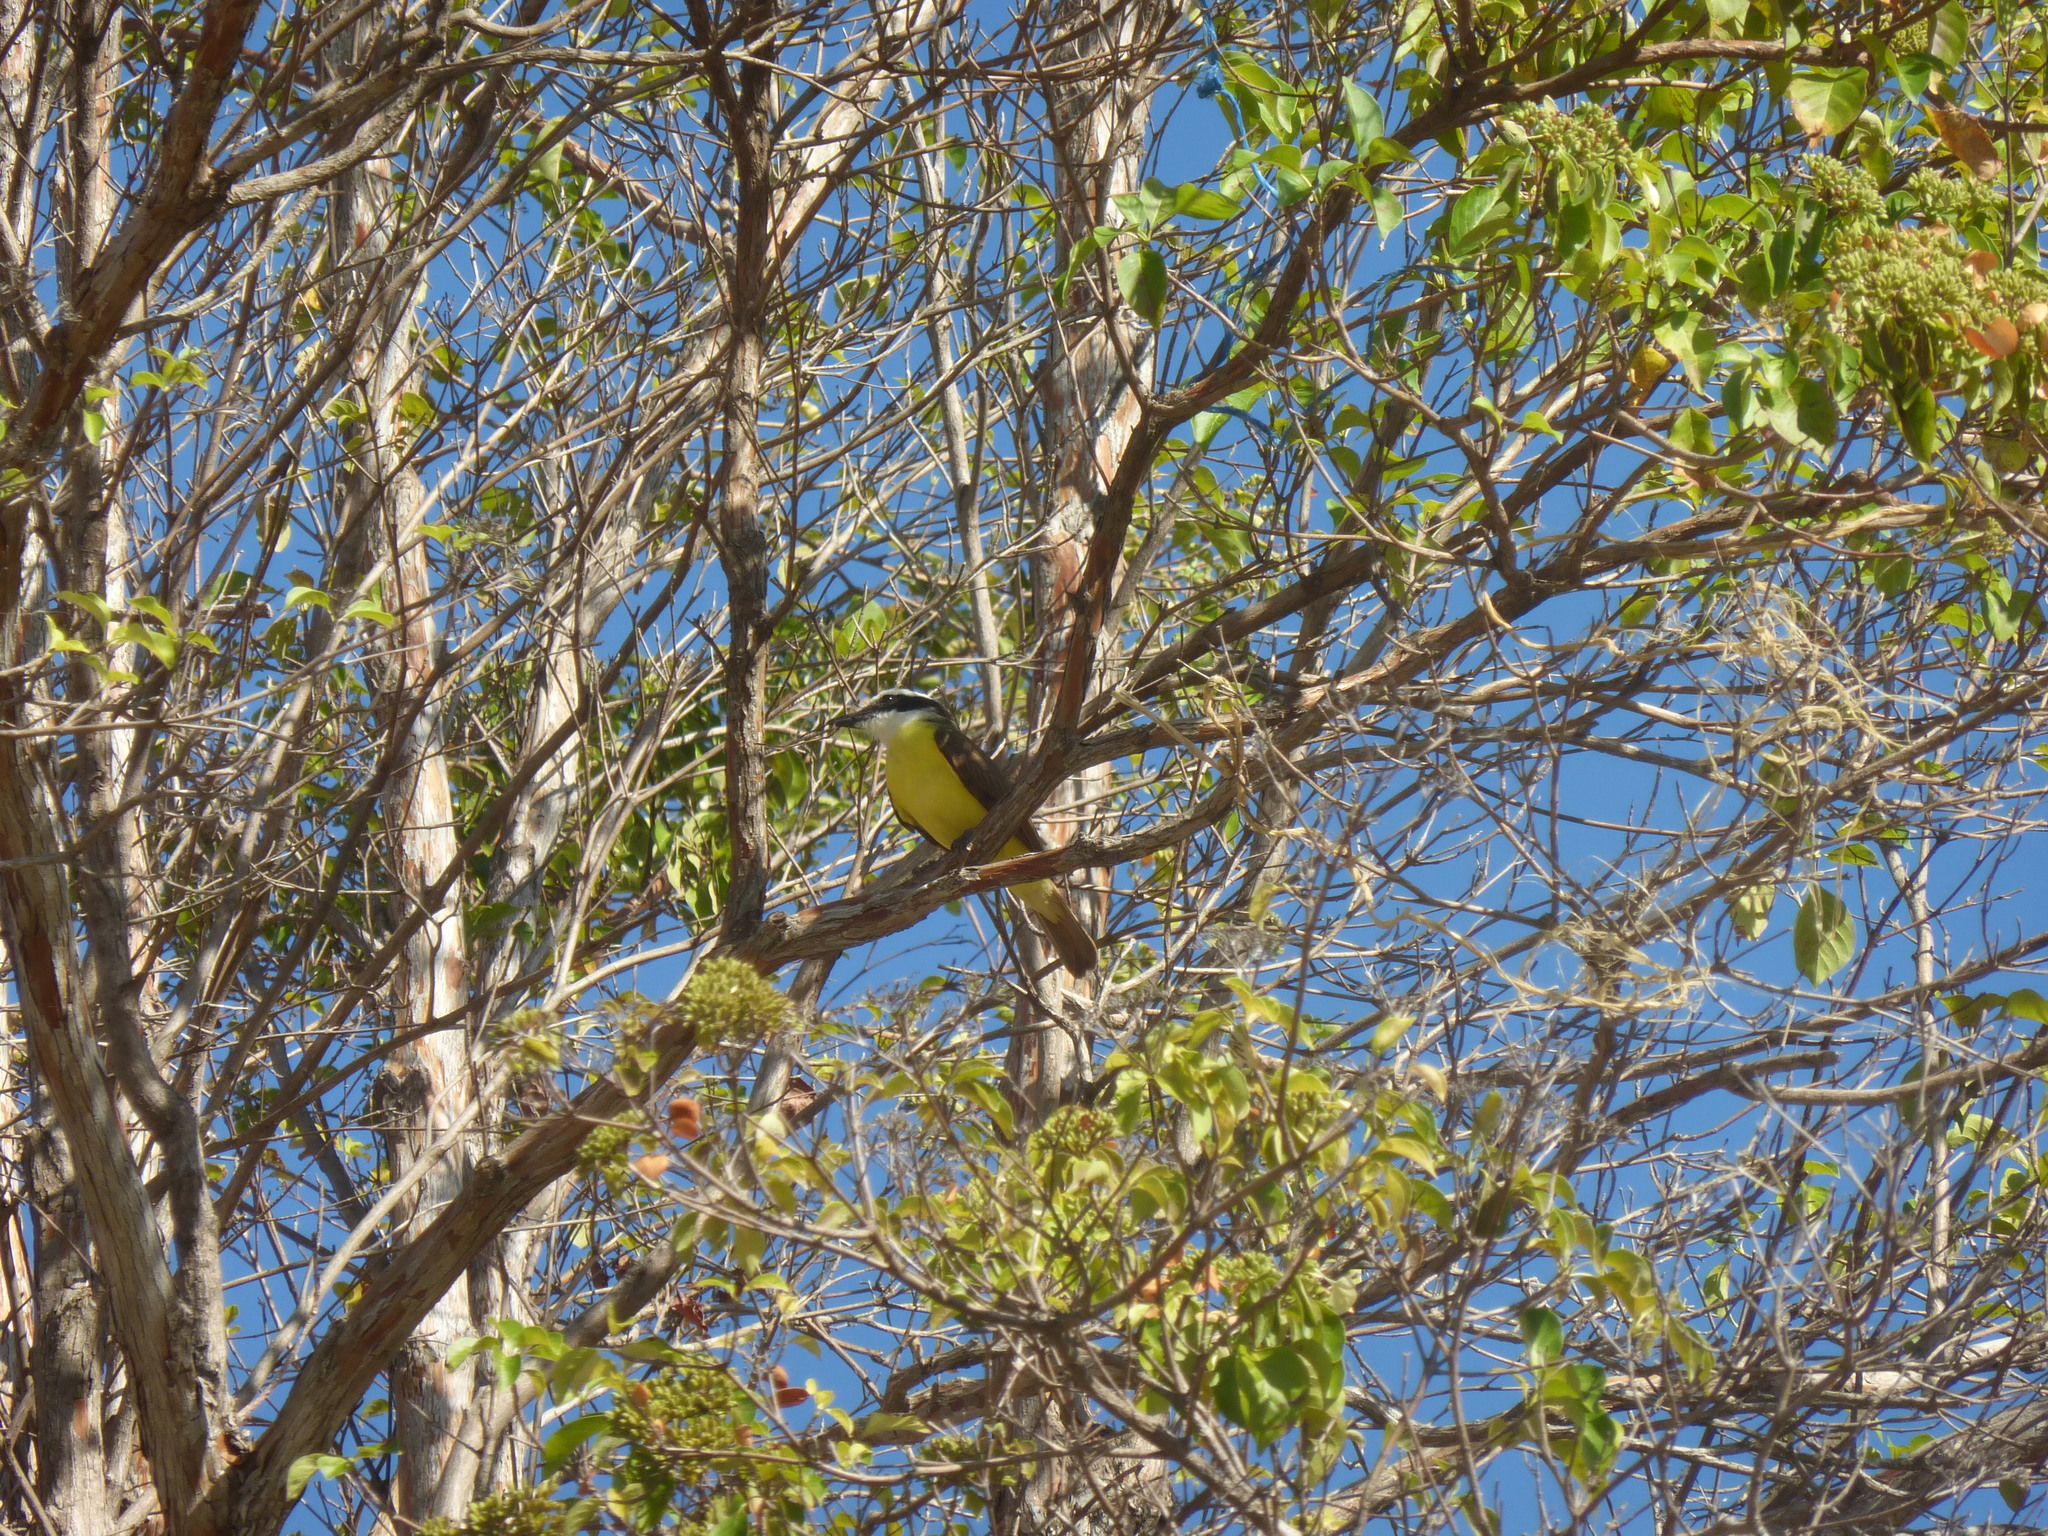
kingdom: Animalia
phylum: Chordata
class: Aves
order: Passeriformes
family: Tyrannidae
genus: Megarynchus
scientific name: Megarynchus pitangua
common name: Boat-billed flycatcher
